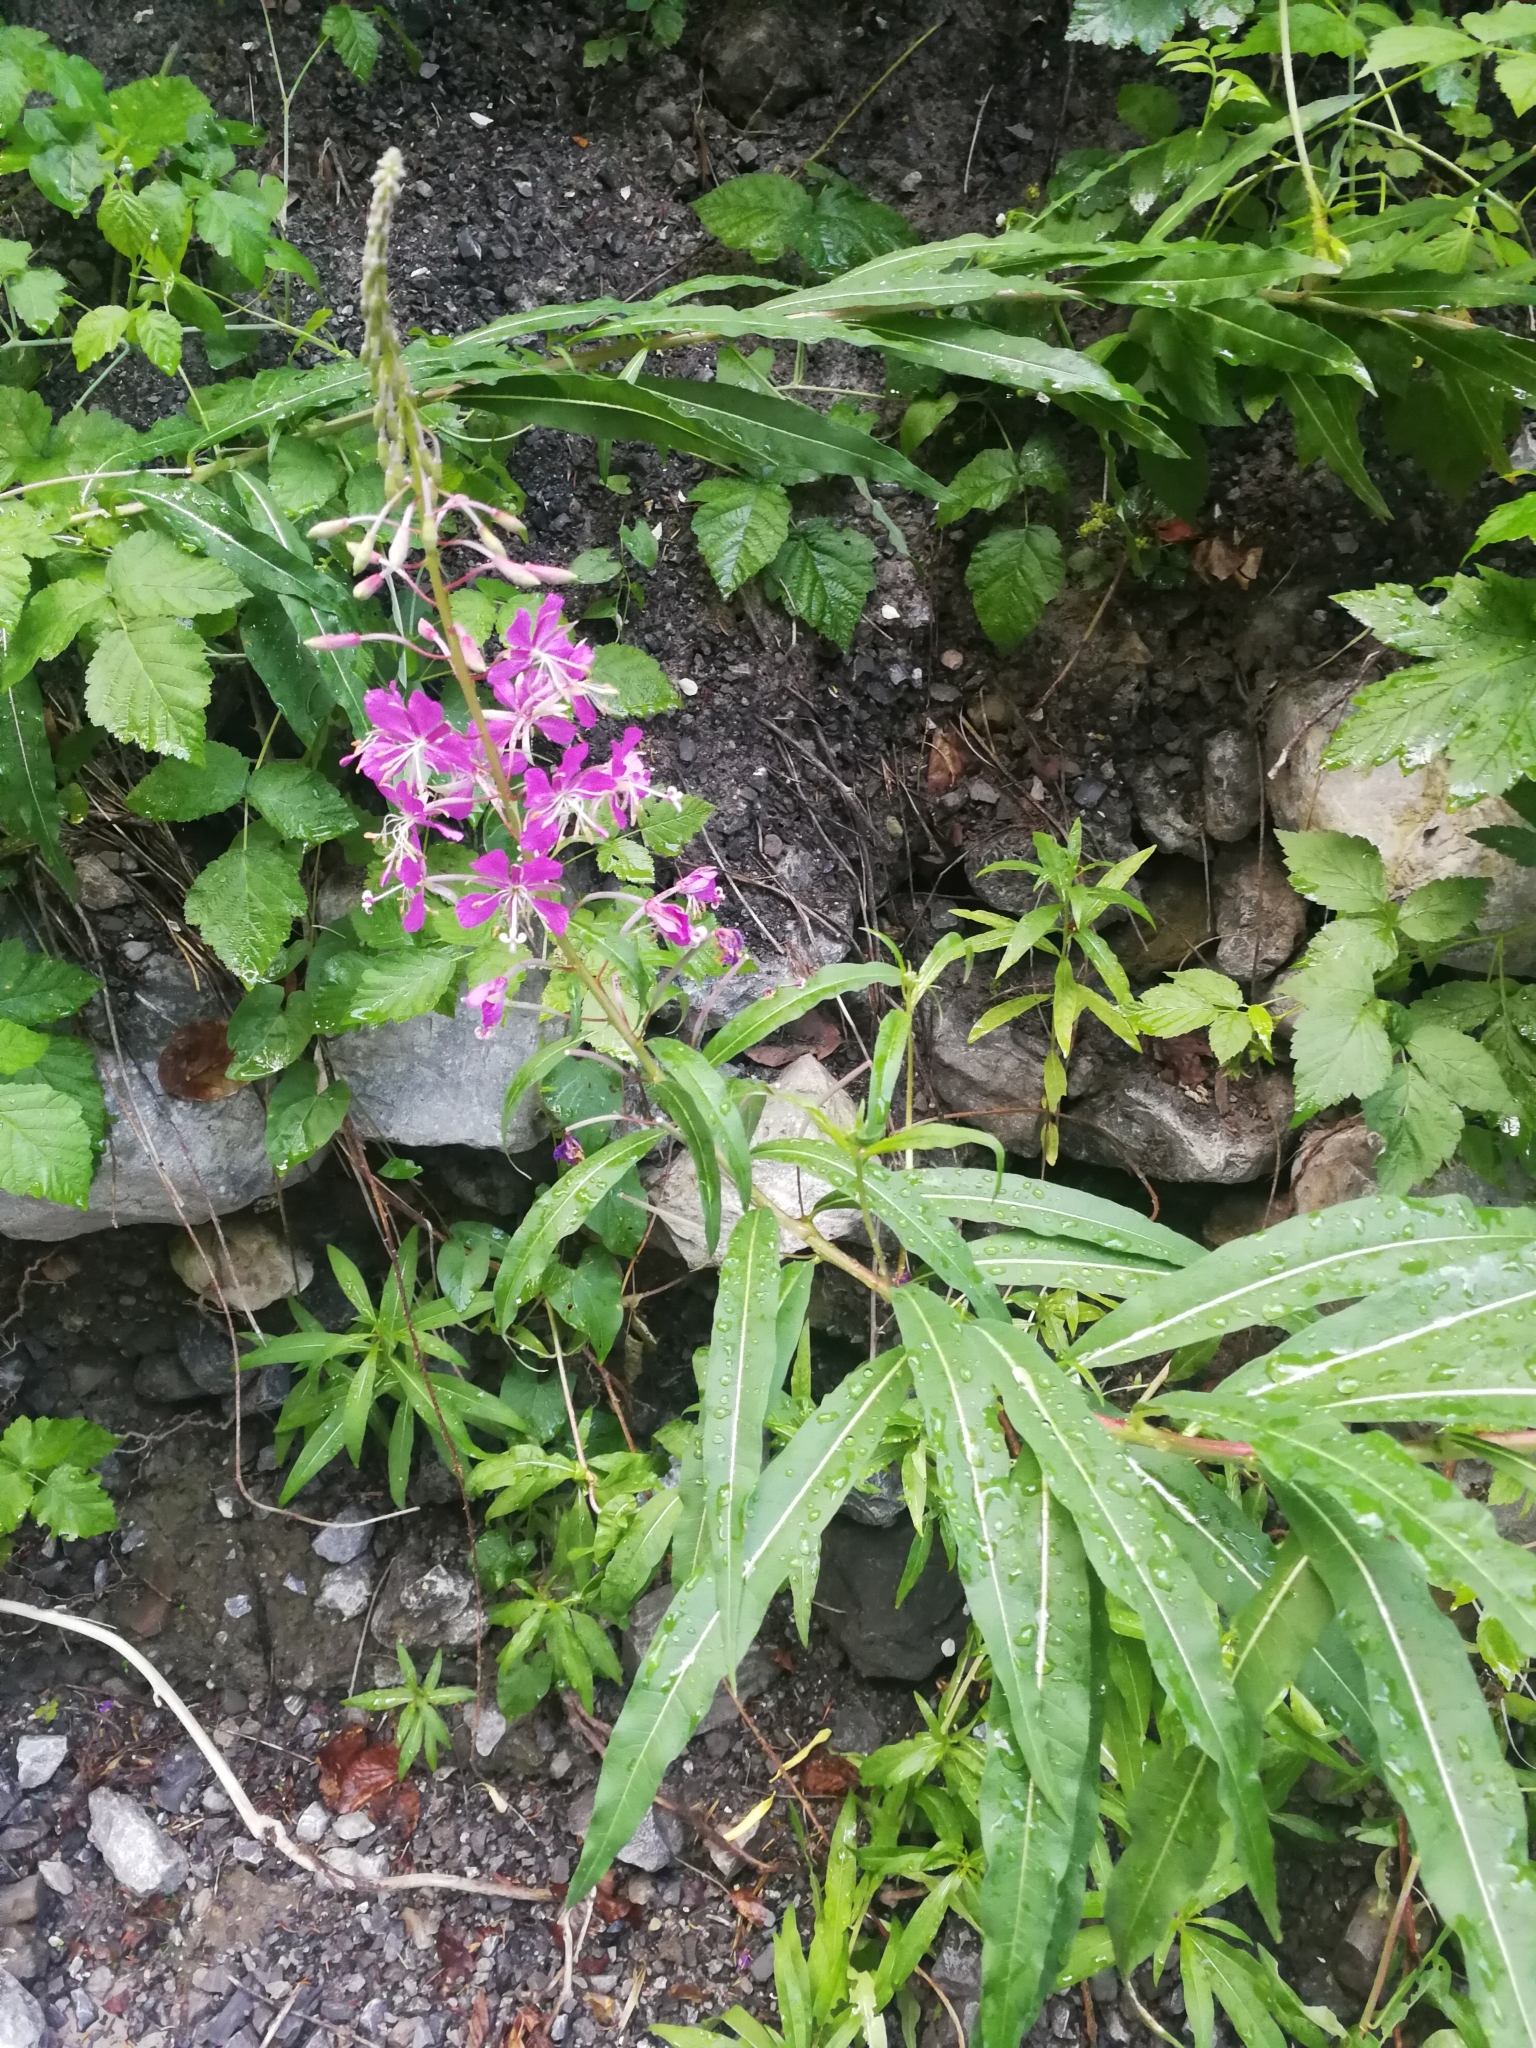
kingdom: Plantae
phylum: Tracheophyta
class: Magnoliopsida
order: Myrtales
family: Onagraceae
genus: Chamaenerion
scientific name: Chamaenerion angustifolium
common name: Fireweed
